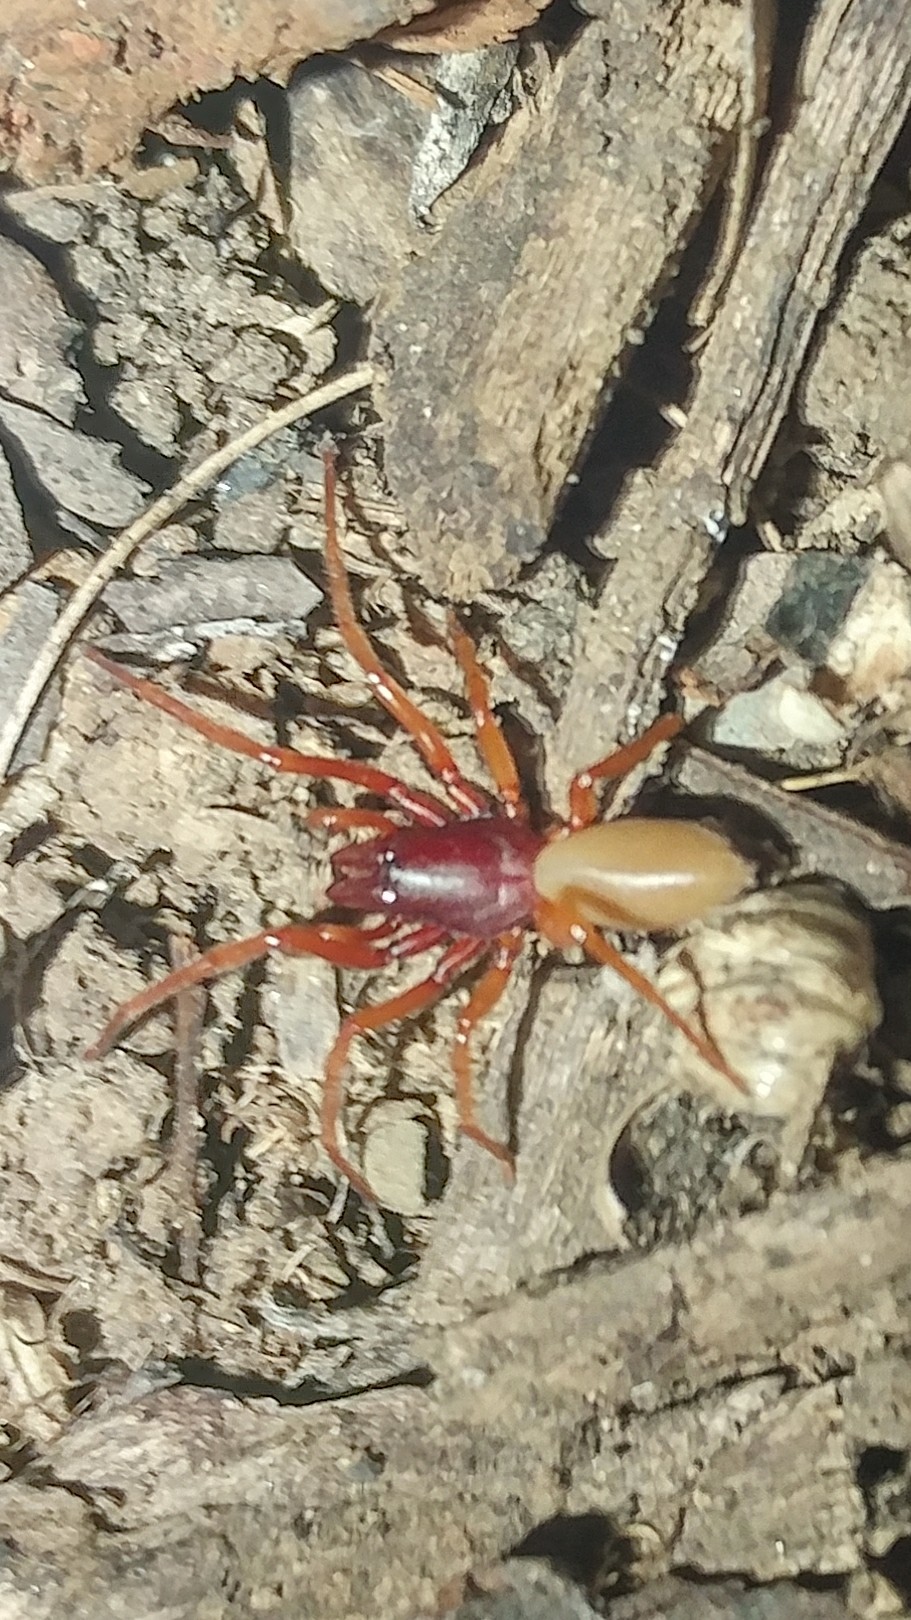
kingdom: Animalia
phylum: Arthropoda
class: Arachnida
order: Araneae
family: Dysderidae
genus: Dysdera
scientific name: Dysdera crocata
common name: Woodlouse spider
